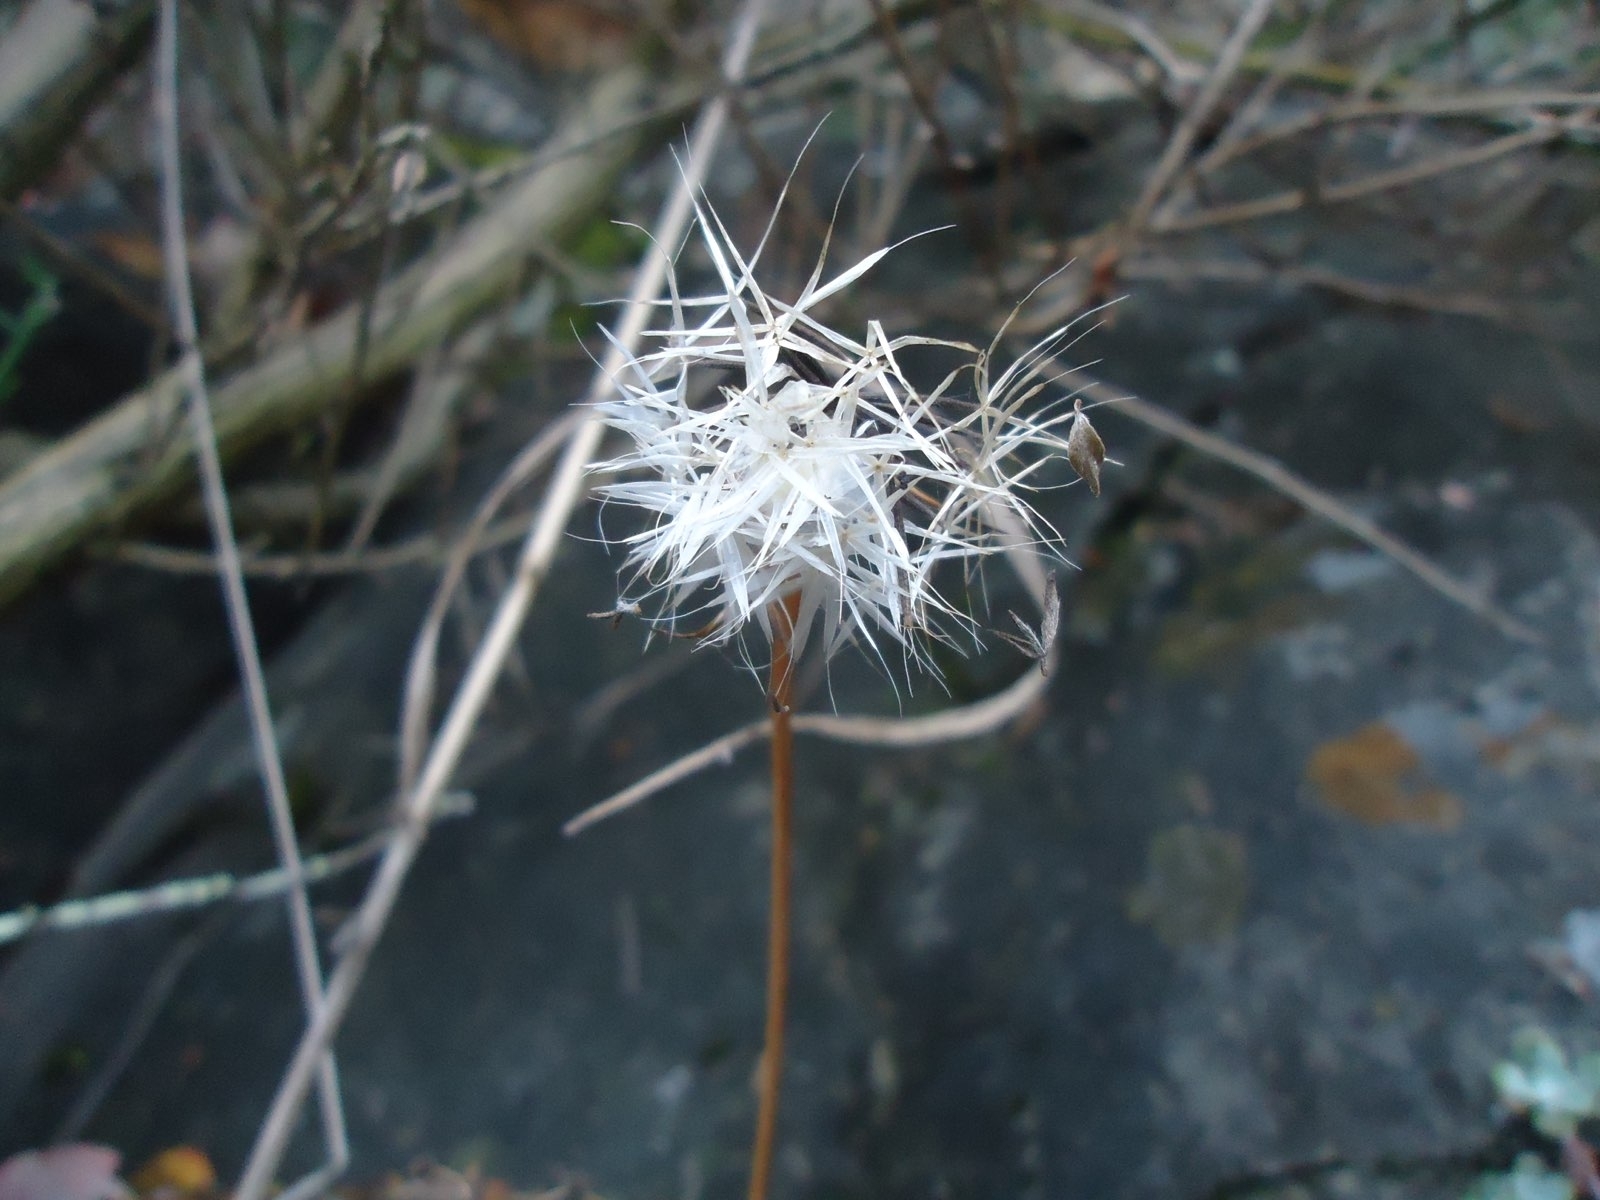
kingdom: Plantae
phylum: Tracheophyta
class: Magnoliopsida
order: Asterales
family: Asteraceae
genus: Microseris
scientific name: Microseris lindleyi
